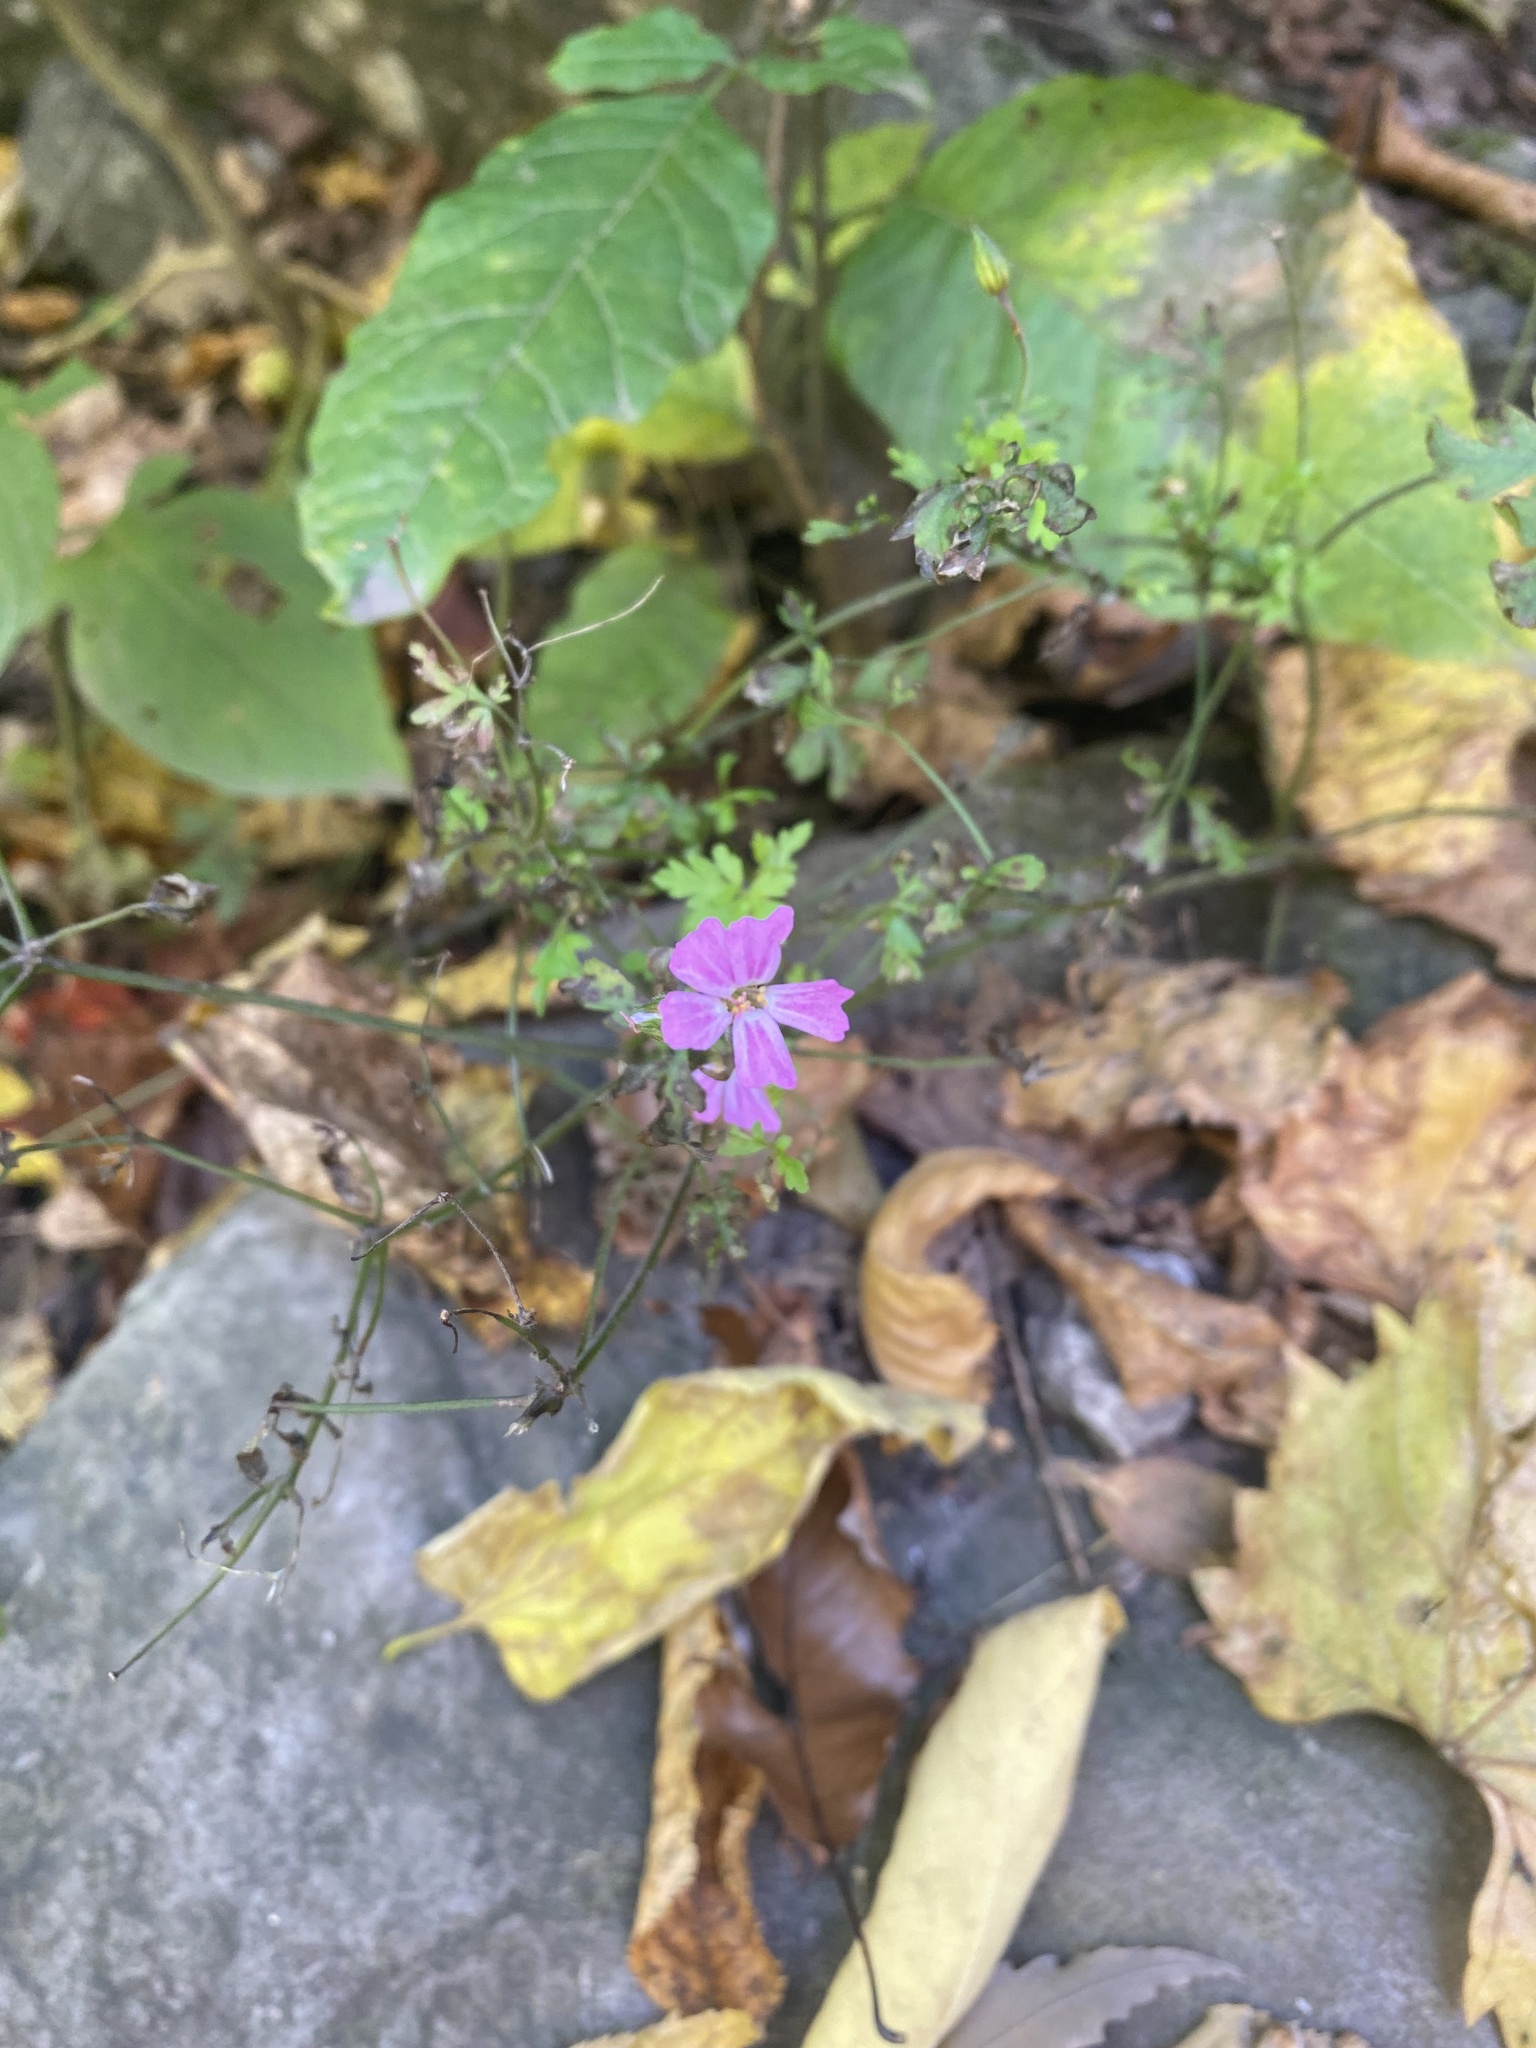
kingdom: Plantae
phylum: Tracheophyta
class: Magnoliopsida
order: Geraniales
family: Geraniaceae
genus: Geranium
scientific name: Geranium robertianum
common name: Herb-robert
